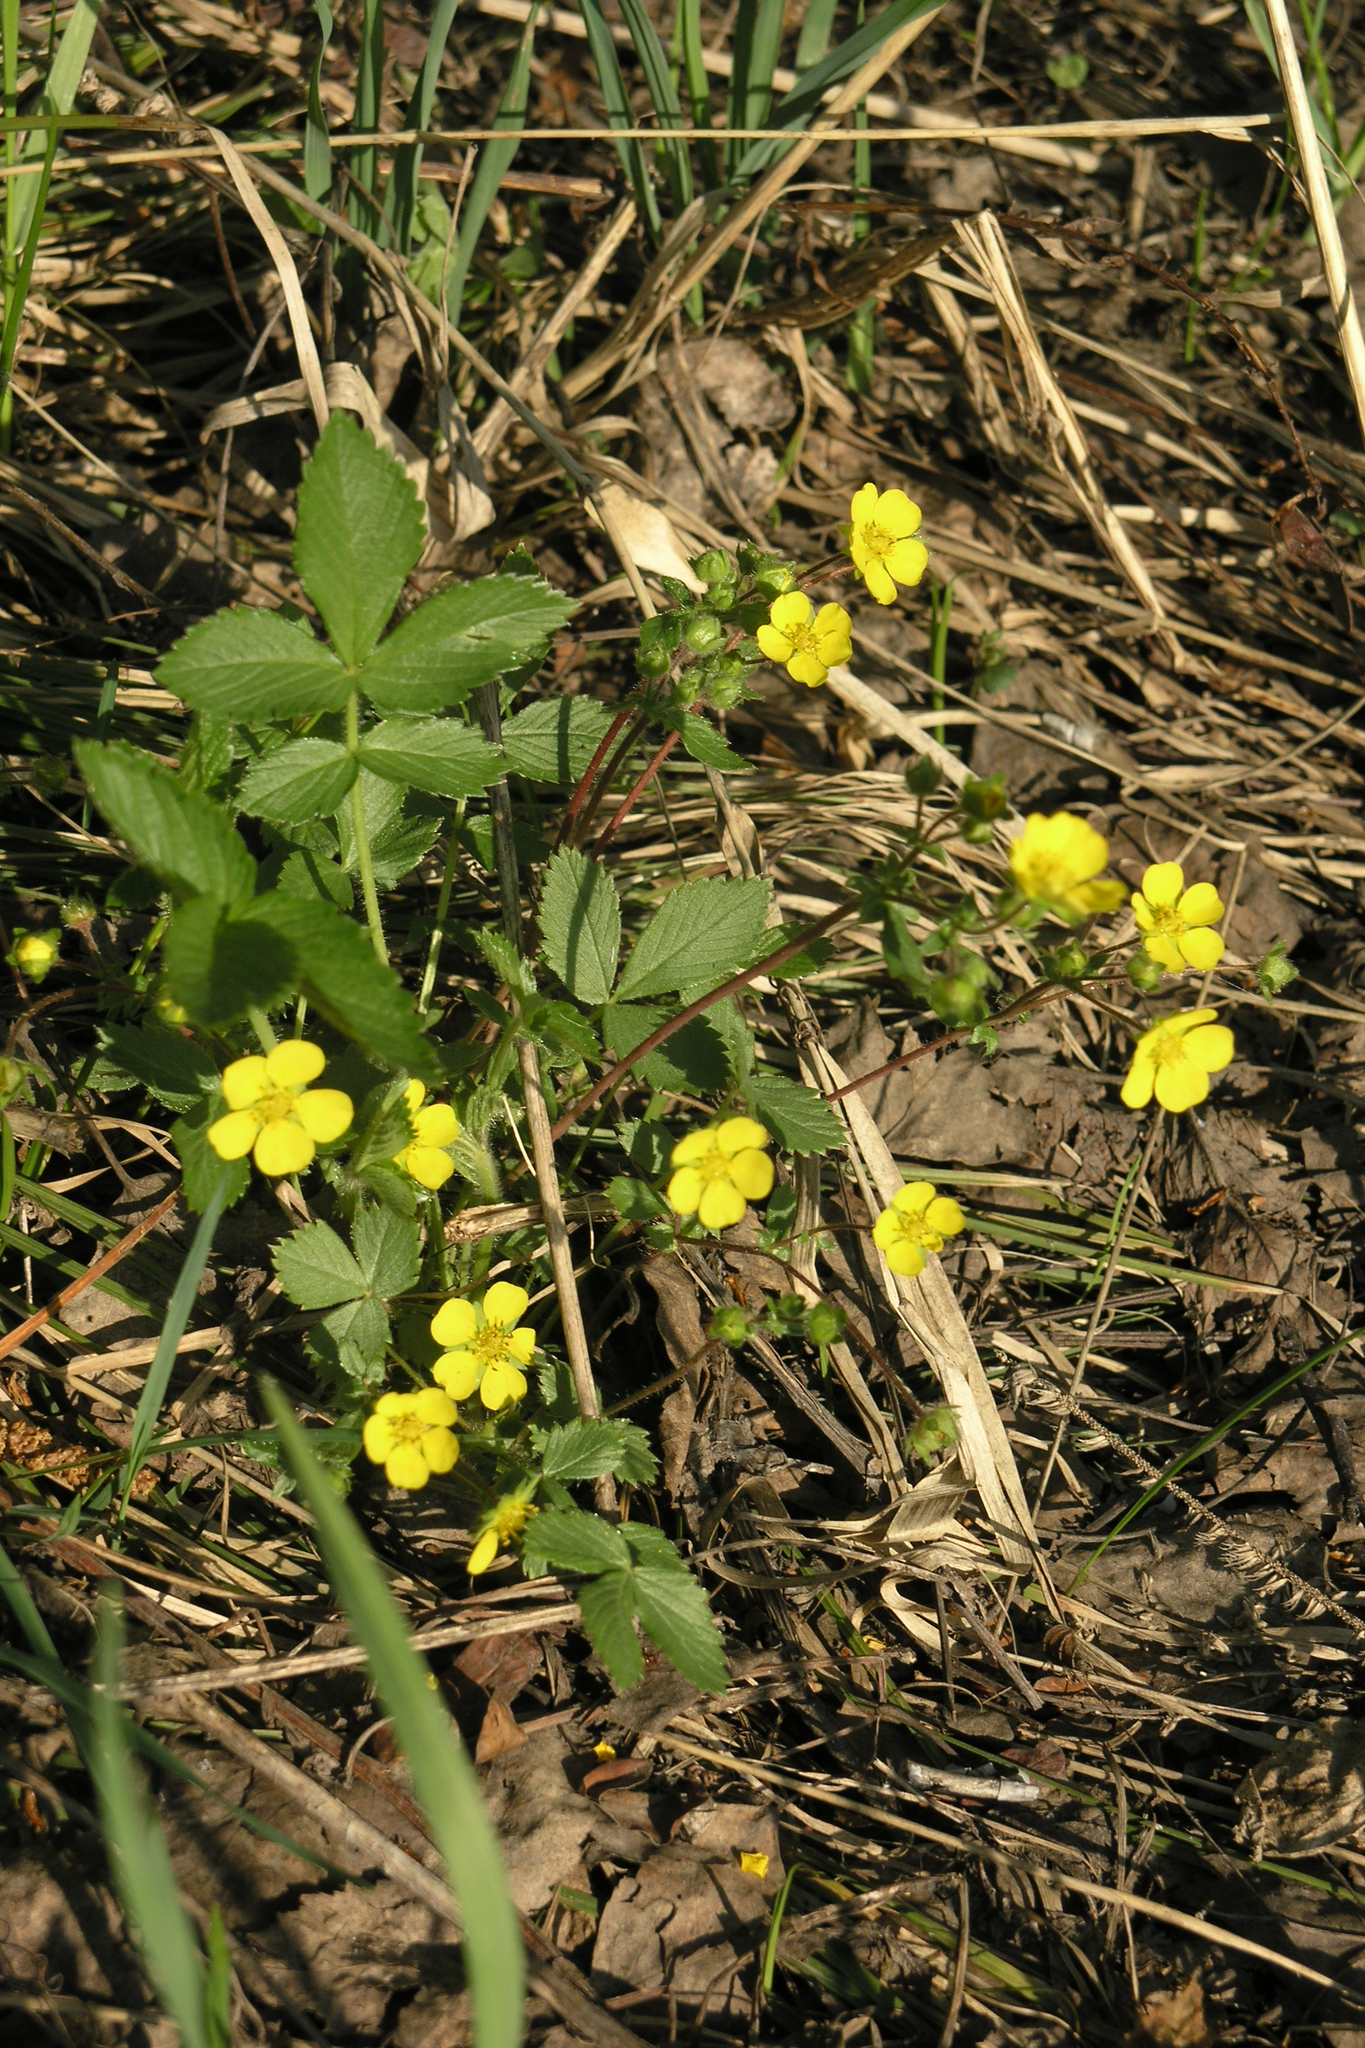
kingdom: Plantae
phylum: Tracheophyta
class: Magnoliopsida
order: Rosales
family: Rosaceae
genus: Potentilla
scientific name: Potentilla fragarioides
